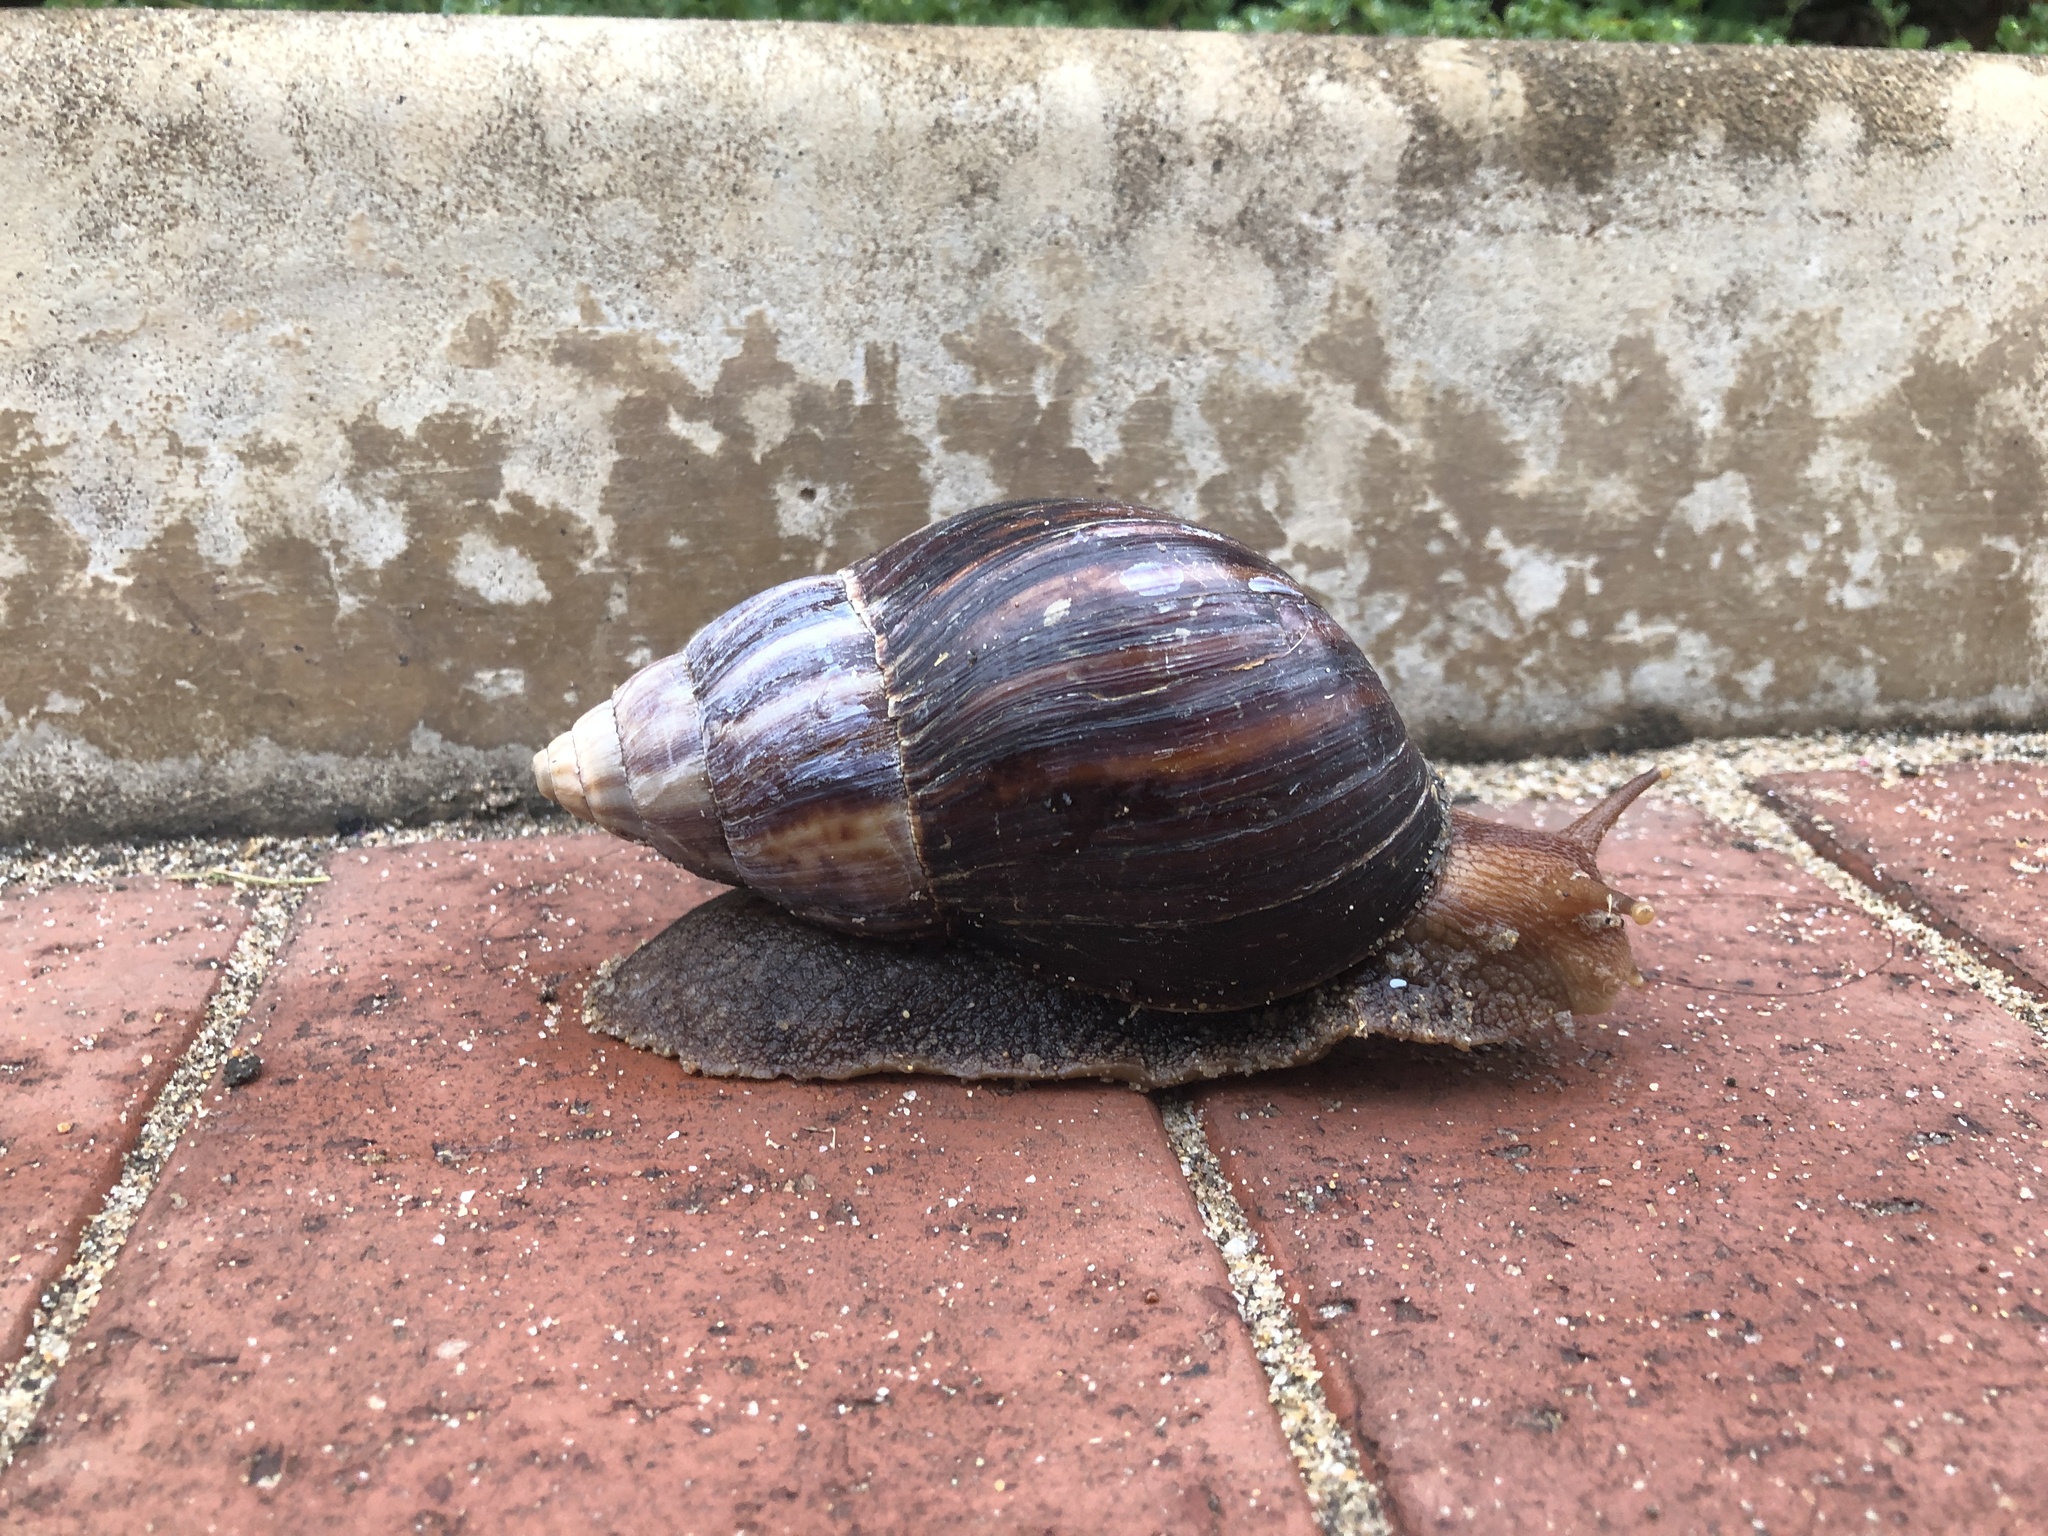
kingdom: Animalia
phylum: Mollusca
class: Gastropoda
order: Stylommatophora
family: Achatinidae
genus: Lissachatina
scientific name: Lissachatina immaculata
